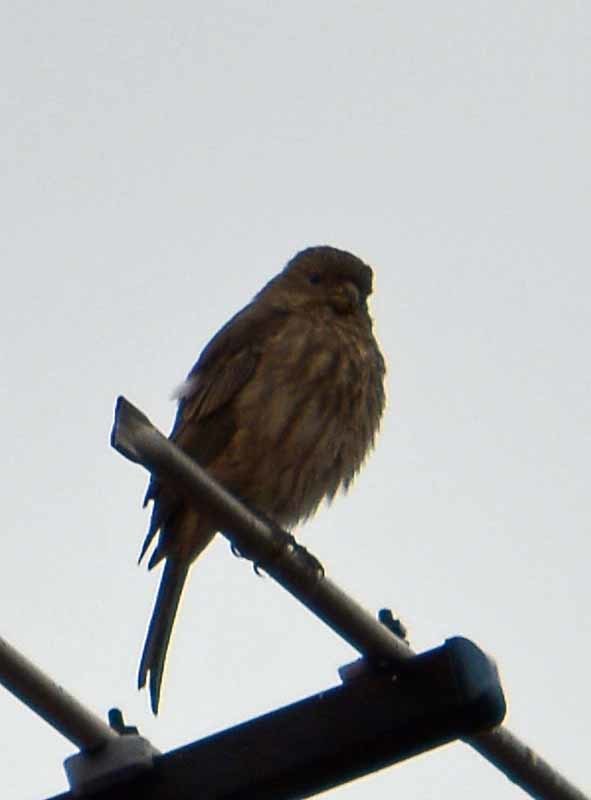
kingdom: Animalia
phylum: Chordata
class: Aves
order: Passeriformes
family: Fringillidae
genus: Haemorhous
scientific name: Haemorhous mexicanus
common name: House finch
